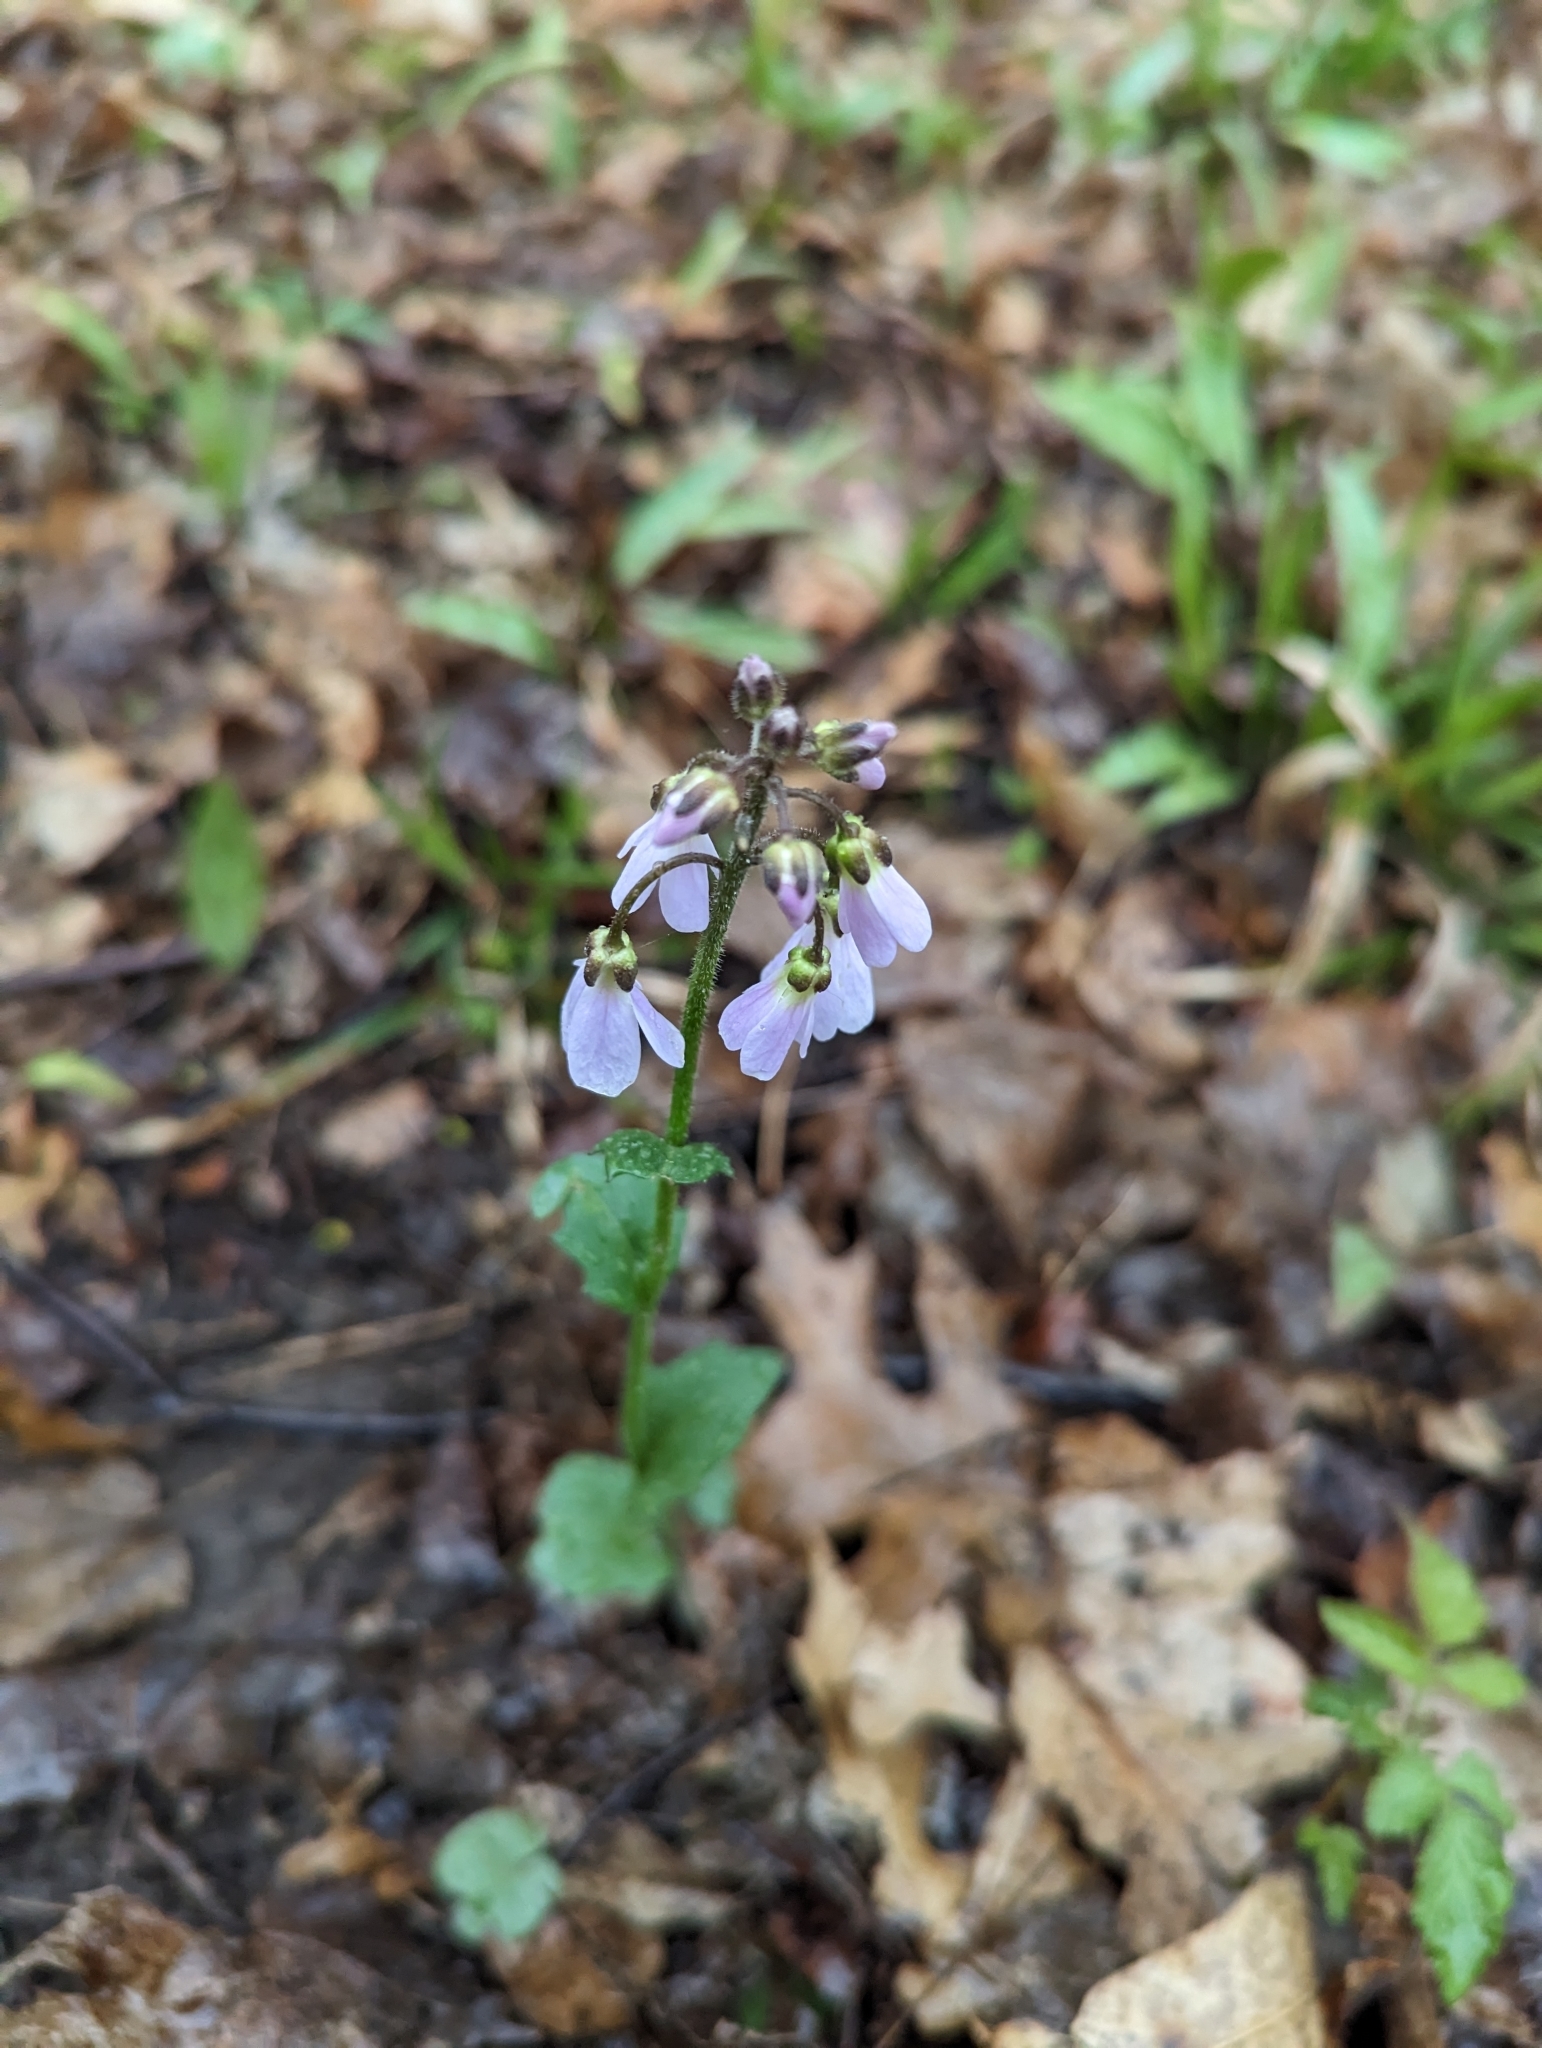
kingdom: Plantae
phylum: Tracheophyta
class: Magnoliopsida
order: Brassicales
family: Brassicaceae
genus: Cardamine
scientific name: Cardamine douglassii
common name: Purple cress
